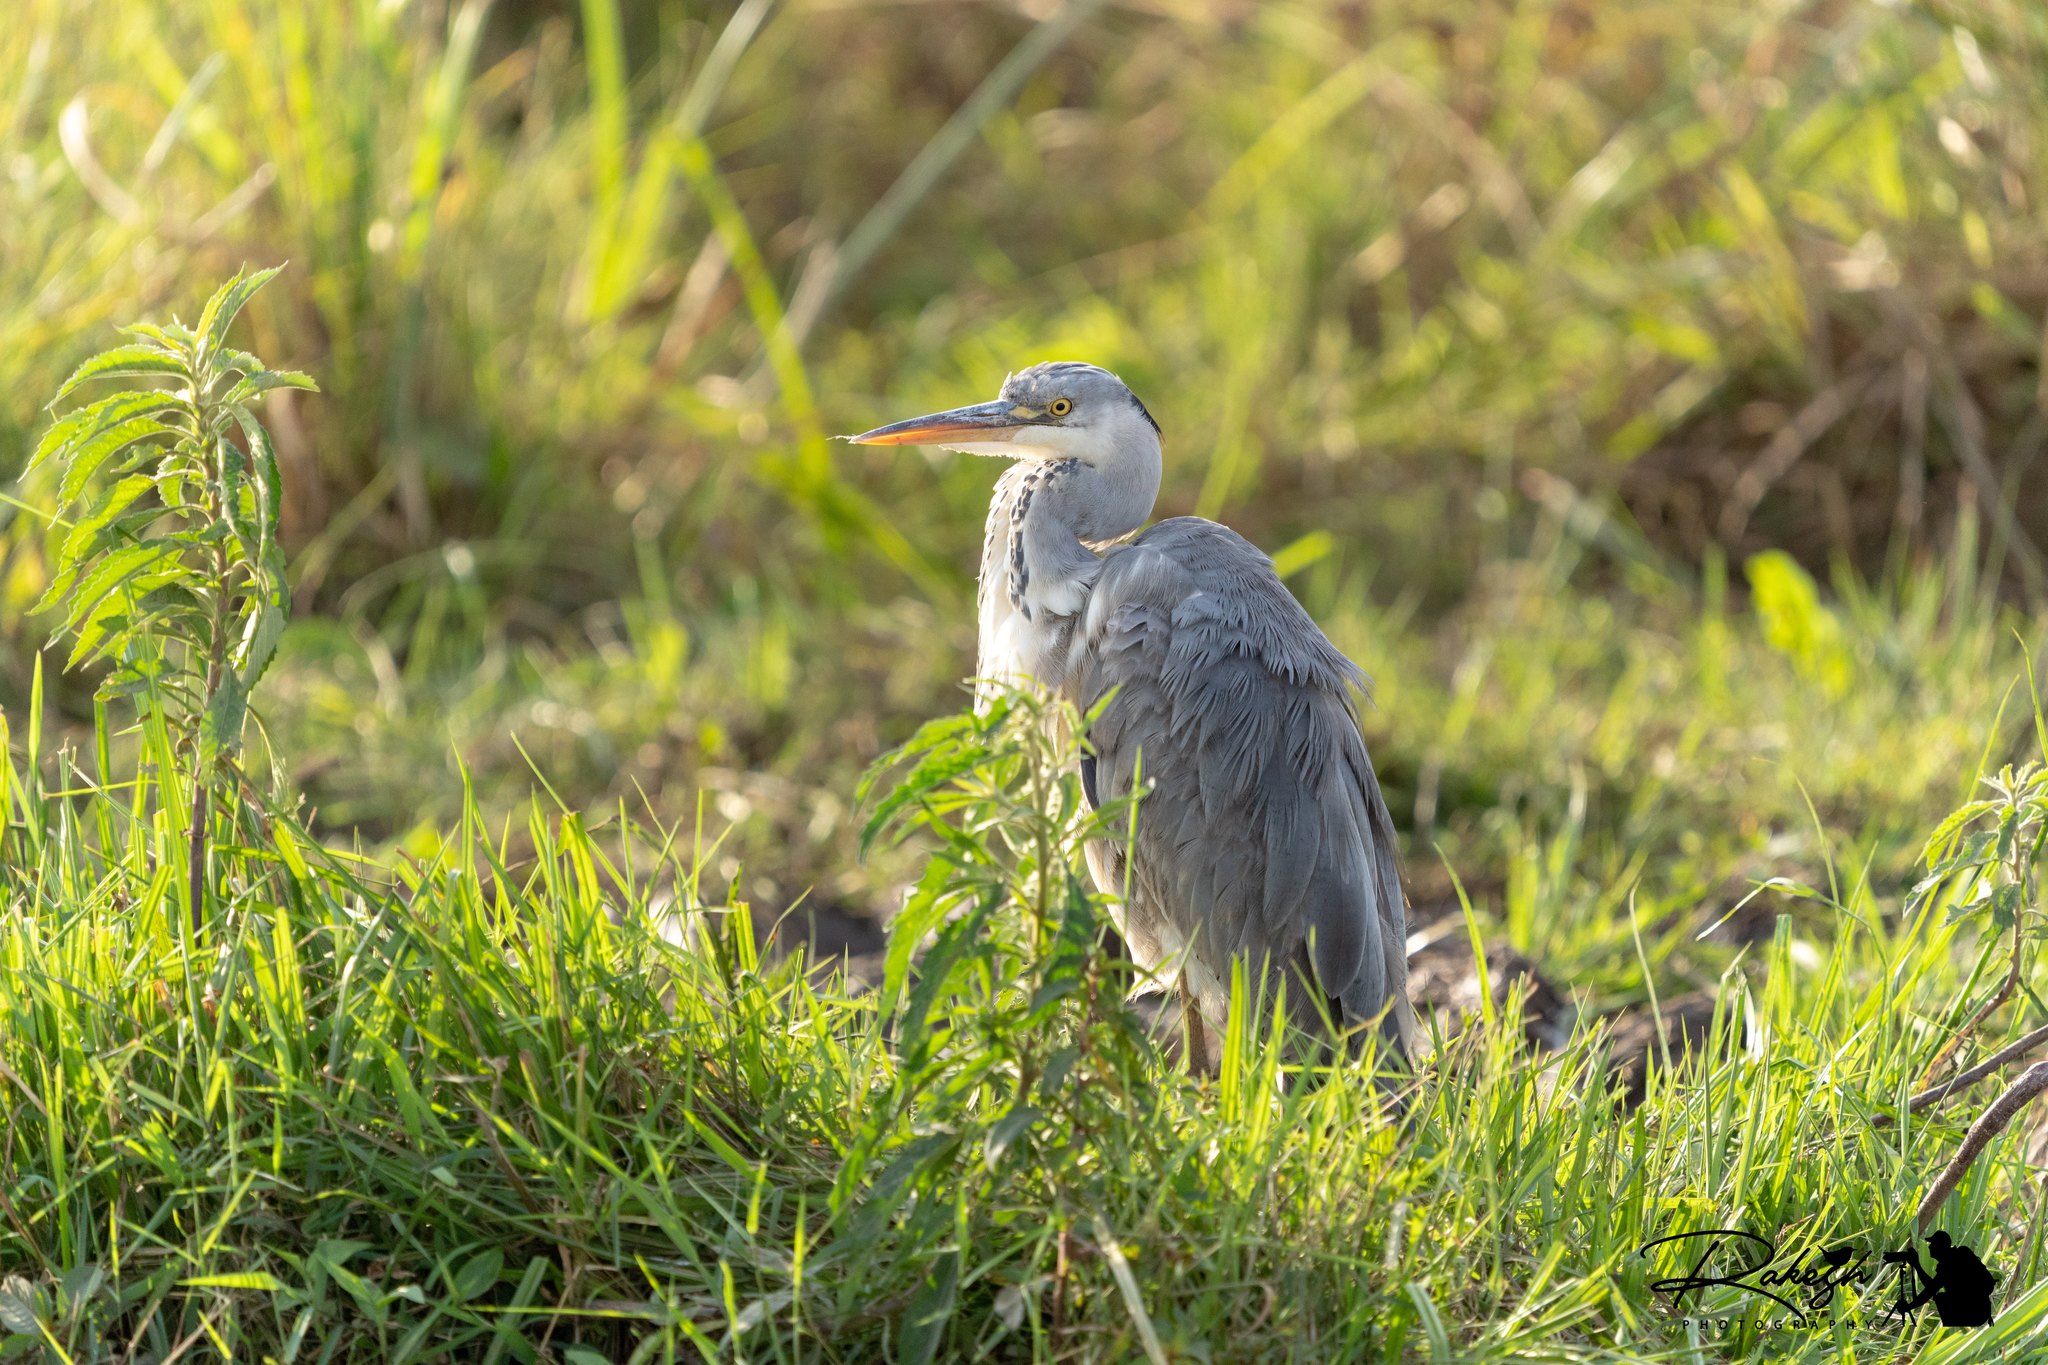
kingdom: Animalia
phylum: Chordata
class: Aves
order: Pelecaniformes
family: Ardeidae
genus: Ardea
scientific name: Ardea cinerea
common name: Grey heron
